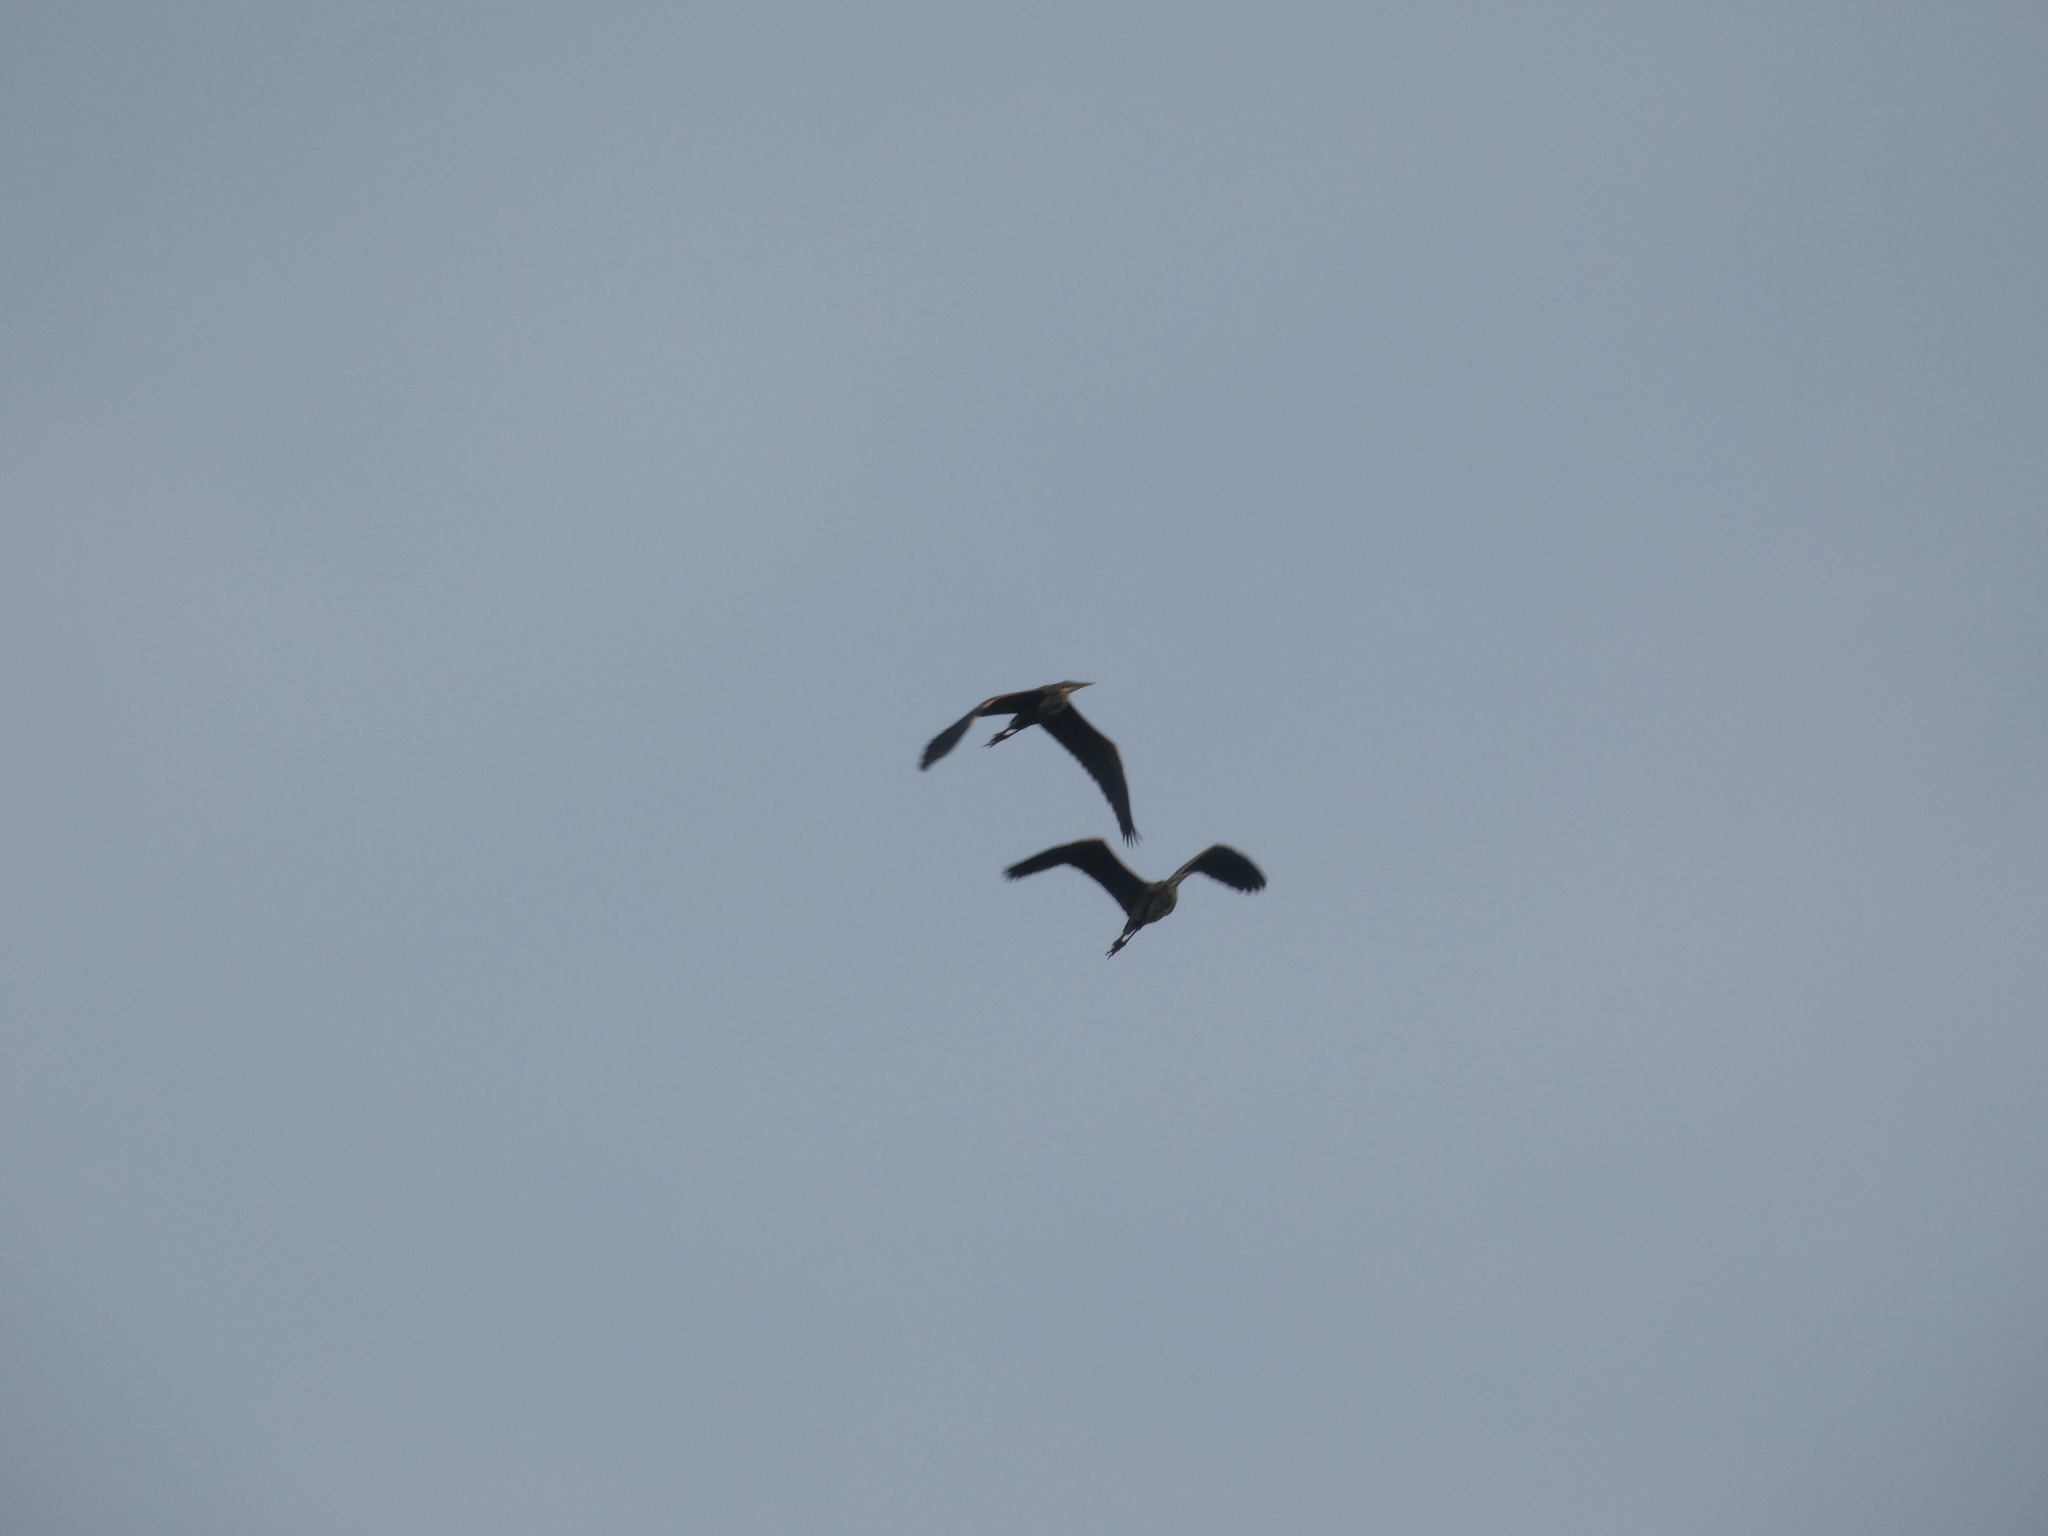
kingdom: Animalia
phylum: Chordata
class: Aves
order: Pelecaniformes
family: Ardeidae
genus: Ardea
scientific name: Ardea cinerea
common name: Grey heron
